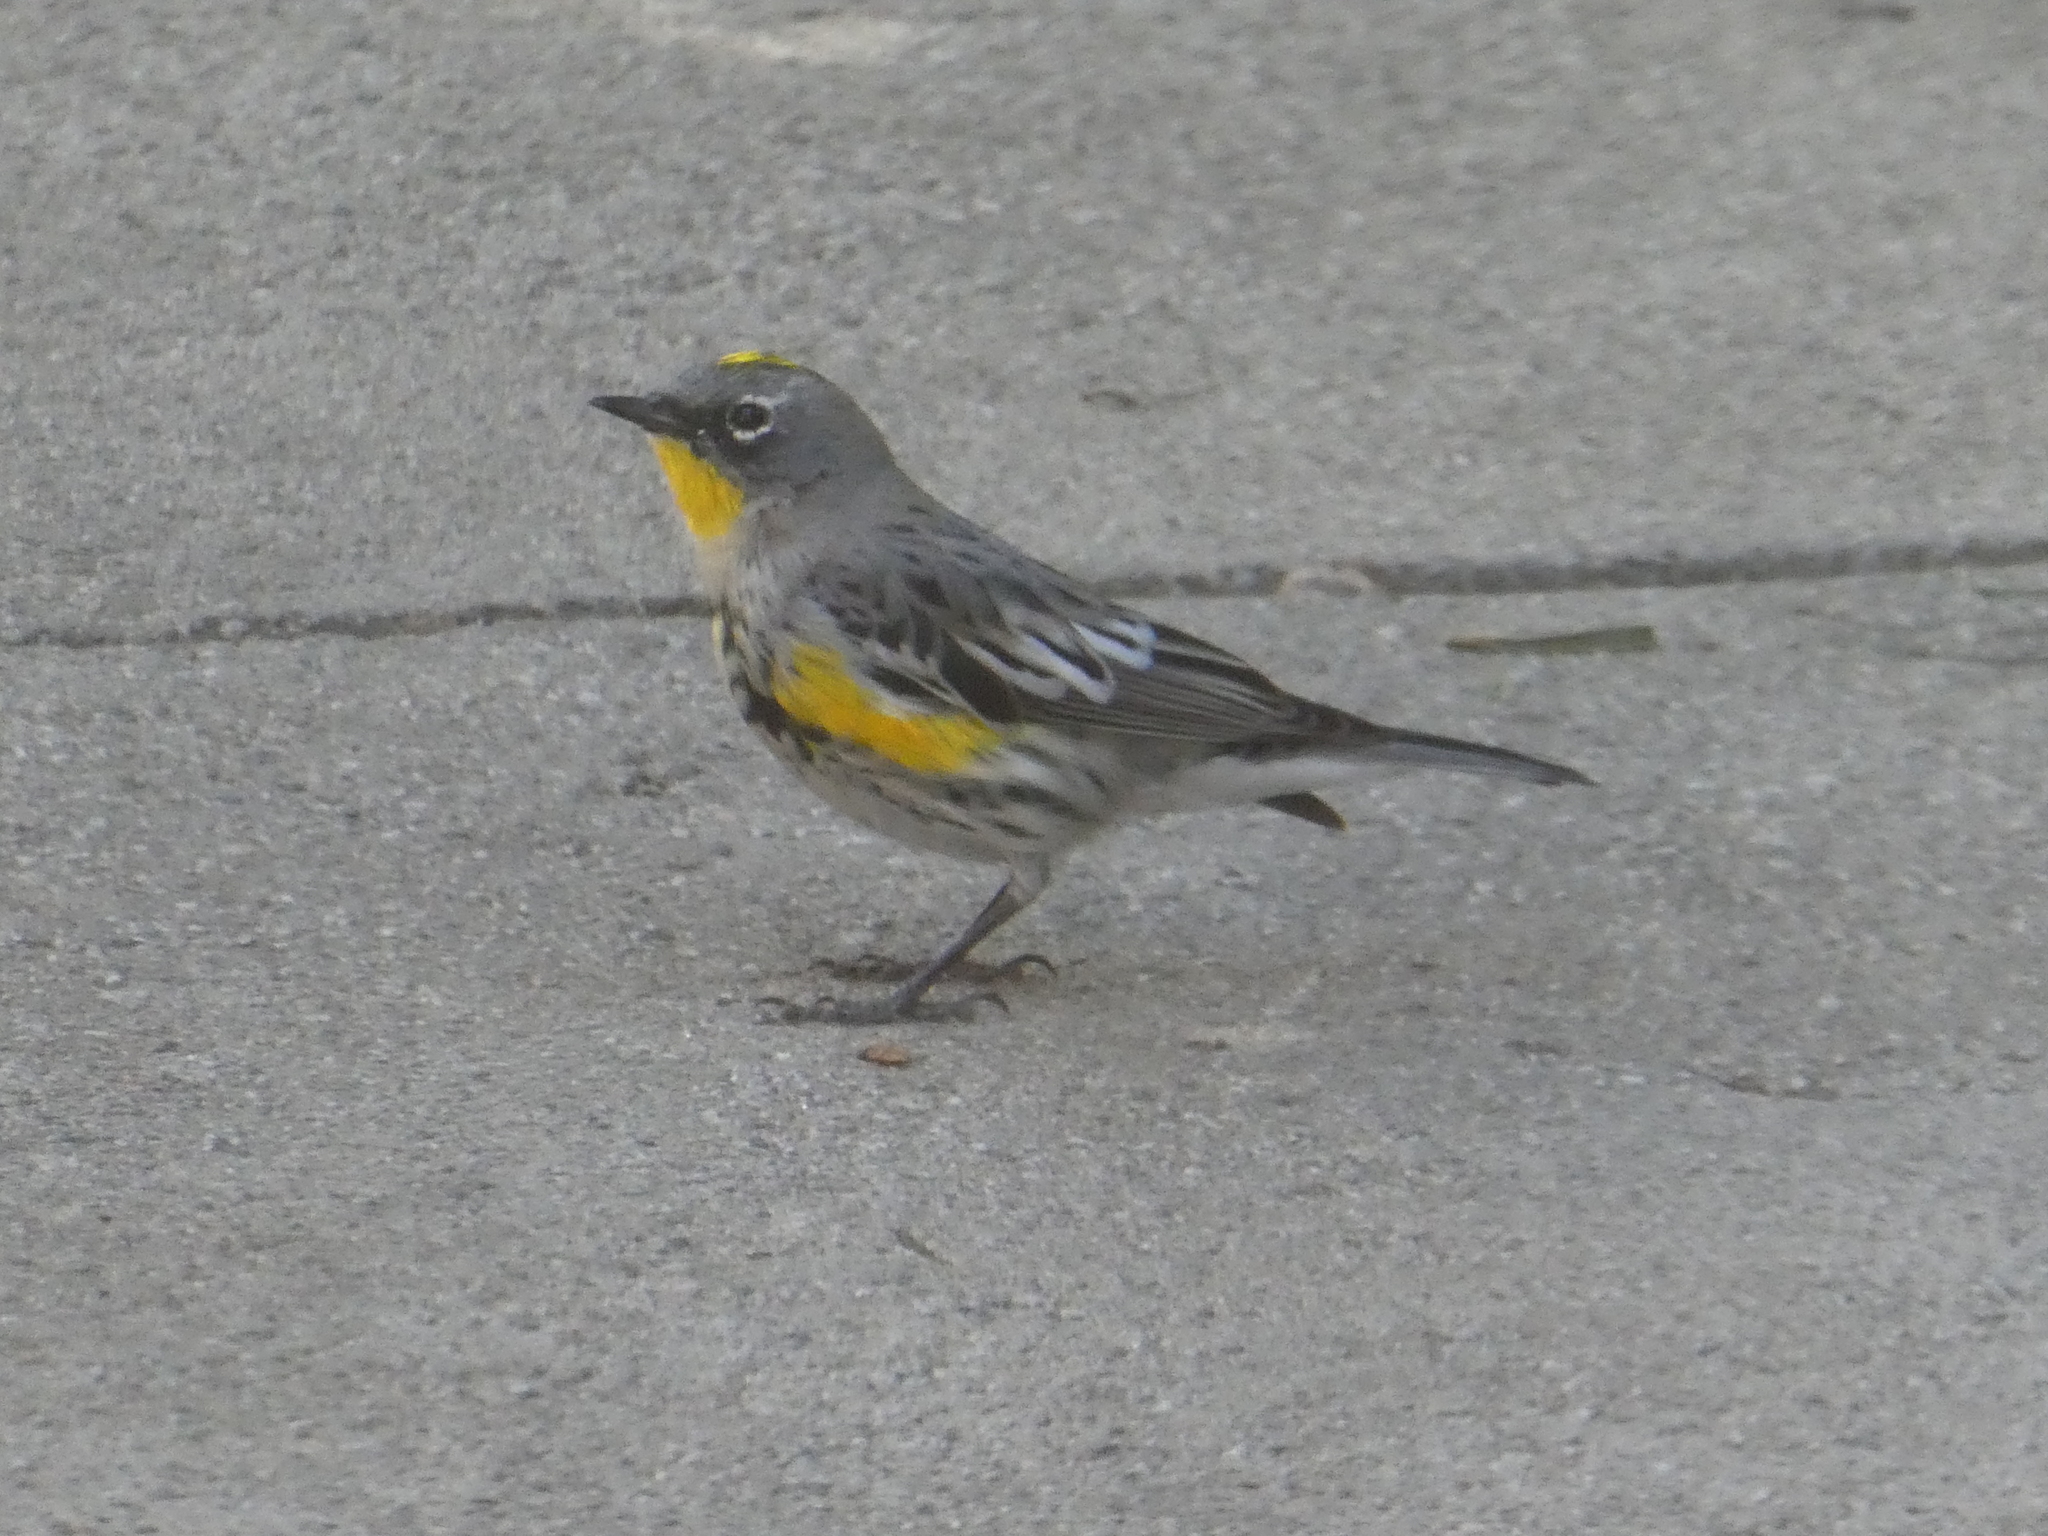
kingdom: Animalia
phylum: Chordata
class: Aves
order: Passeriformes
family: Parulidae
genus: Setophaga
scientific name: Setophaga coronata
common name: Myrtle warbler
